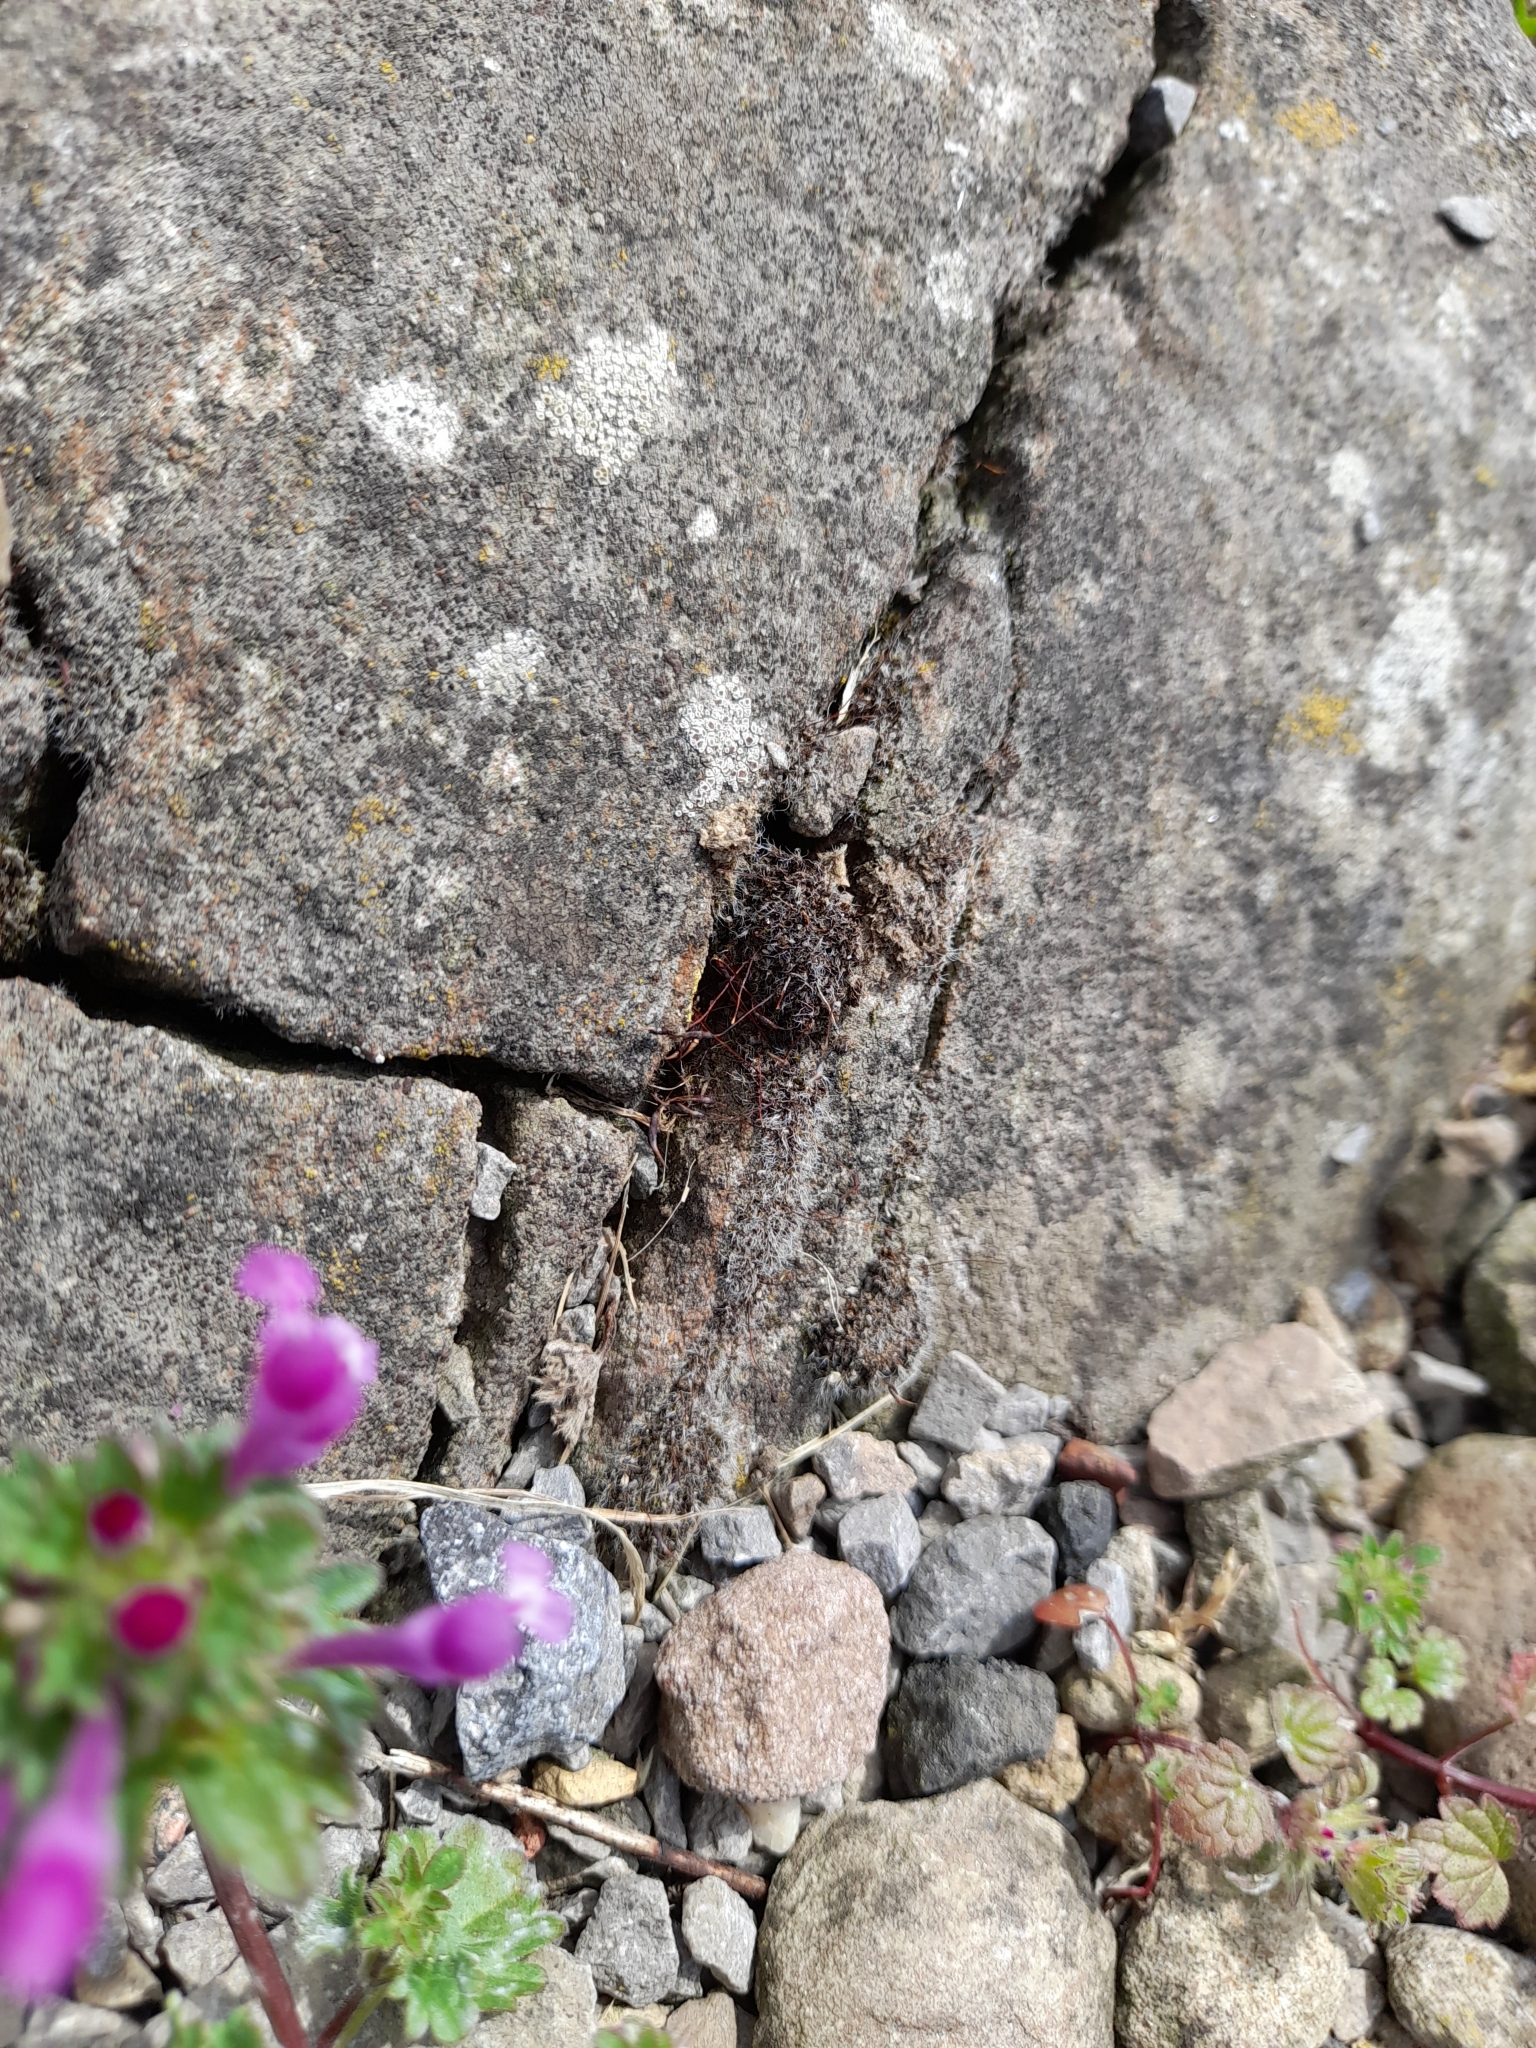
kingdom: Plantae
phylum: Tracheophyta
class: Magnoliopsida
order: Lamiales
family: Lamiaceae
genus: Lamium
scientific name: Lamium amplexicaule
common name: Henbit dead-nettle
